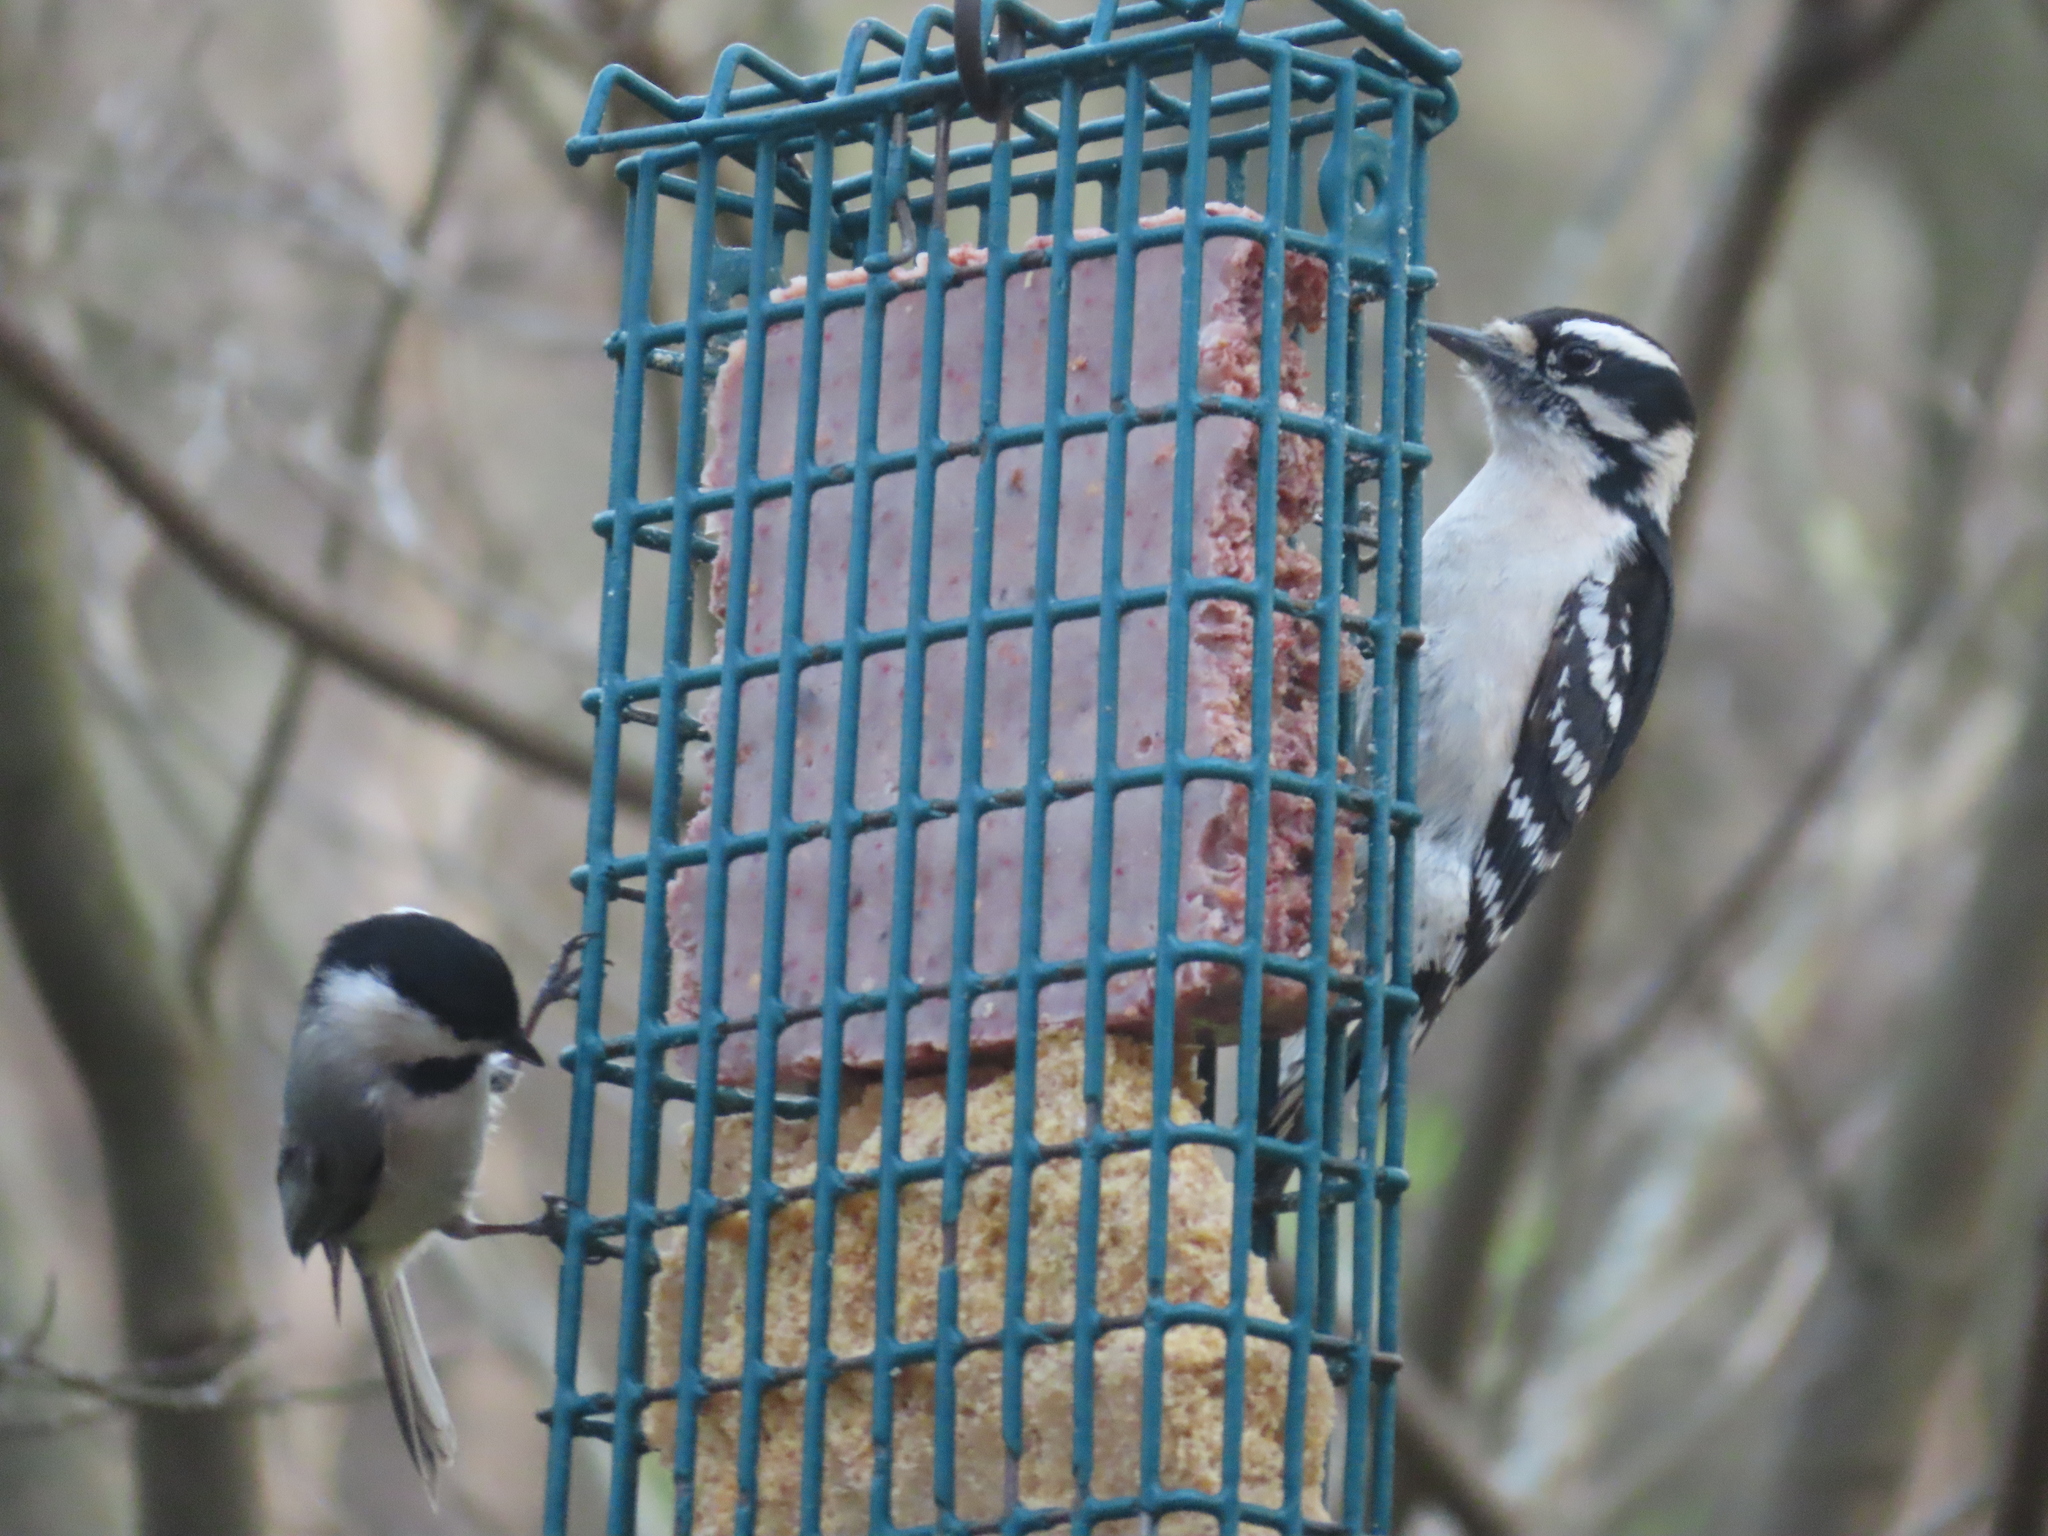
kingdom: Animalia
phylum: Chordata
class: Aves
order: Passeriformes
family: Paridae
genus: Poecile
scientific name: Poecile carolinensis
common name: Carolina chickadee
